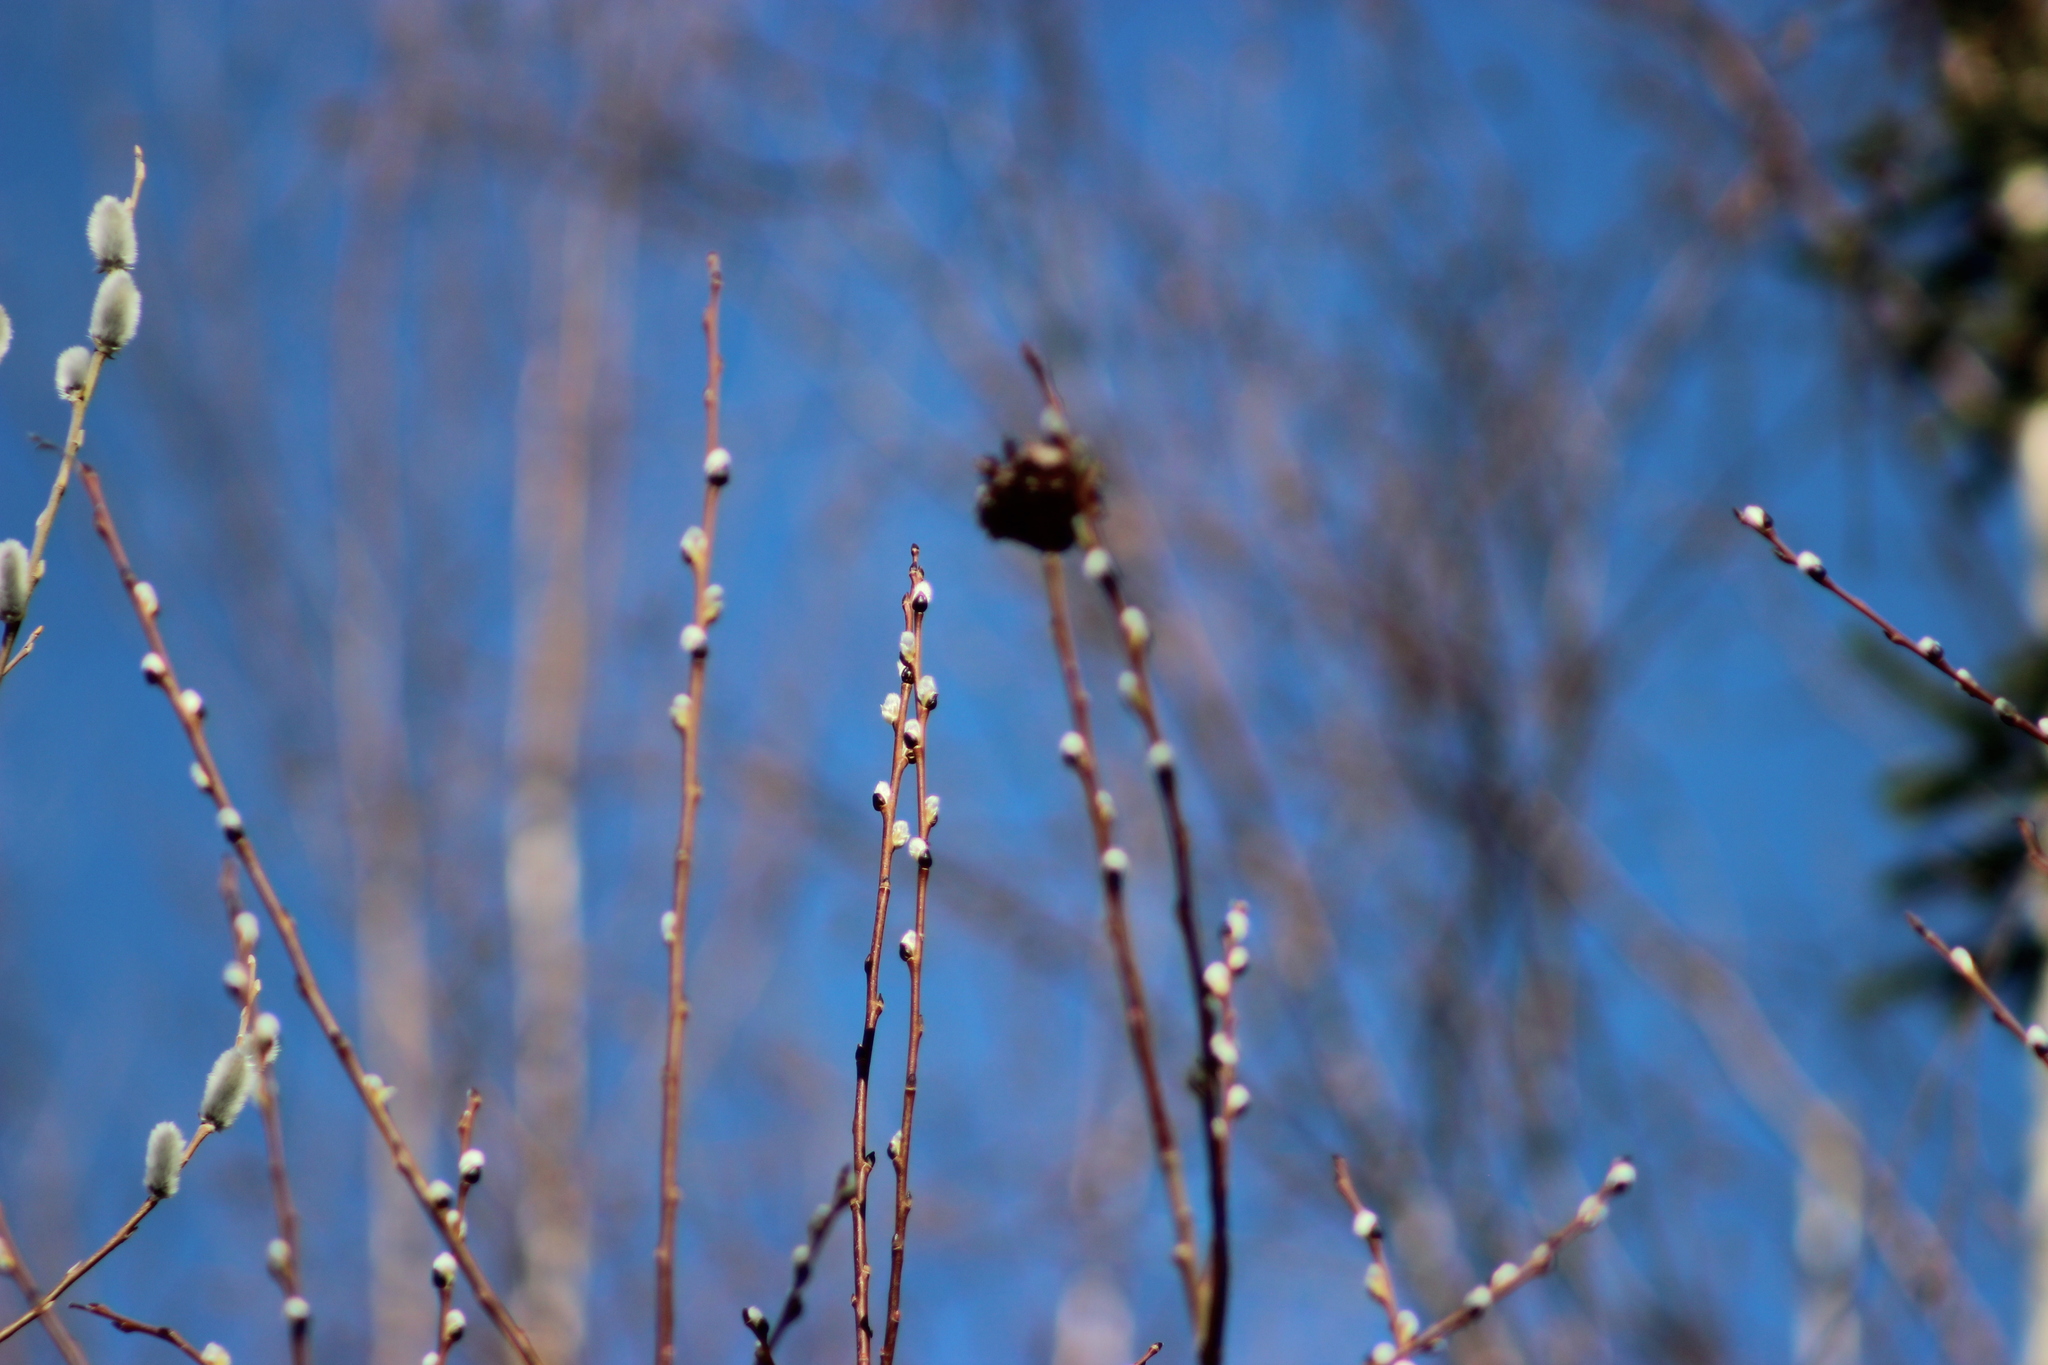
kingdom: Animalia
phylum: Arthropoda
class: Insecta
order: Diptera
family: Cecidomyiidae
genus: Rabdophaga
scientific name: Rabdophaga rosaria
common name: Willow rose gall midge
